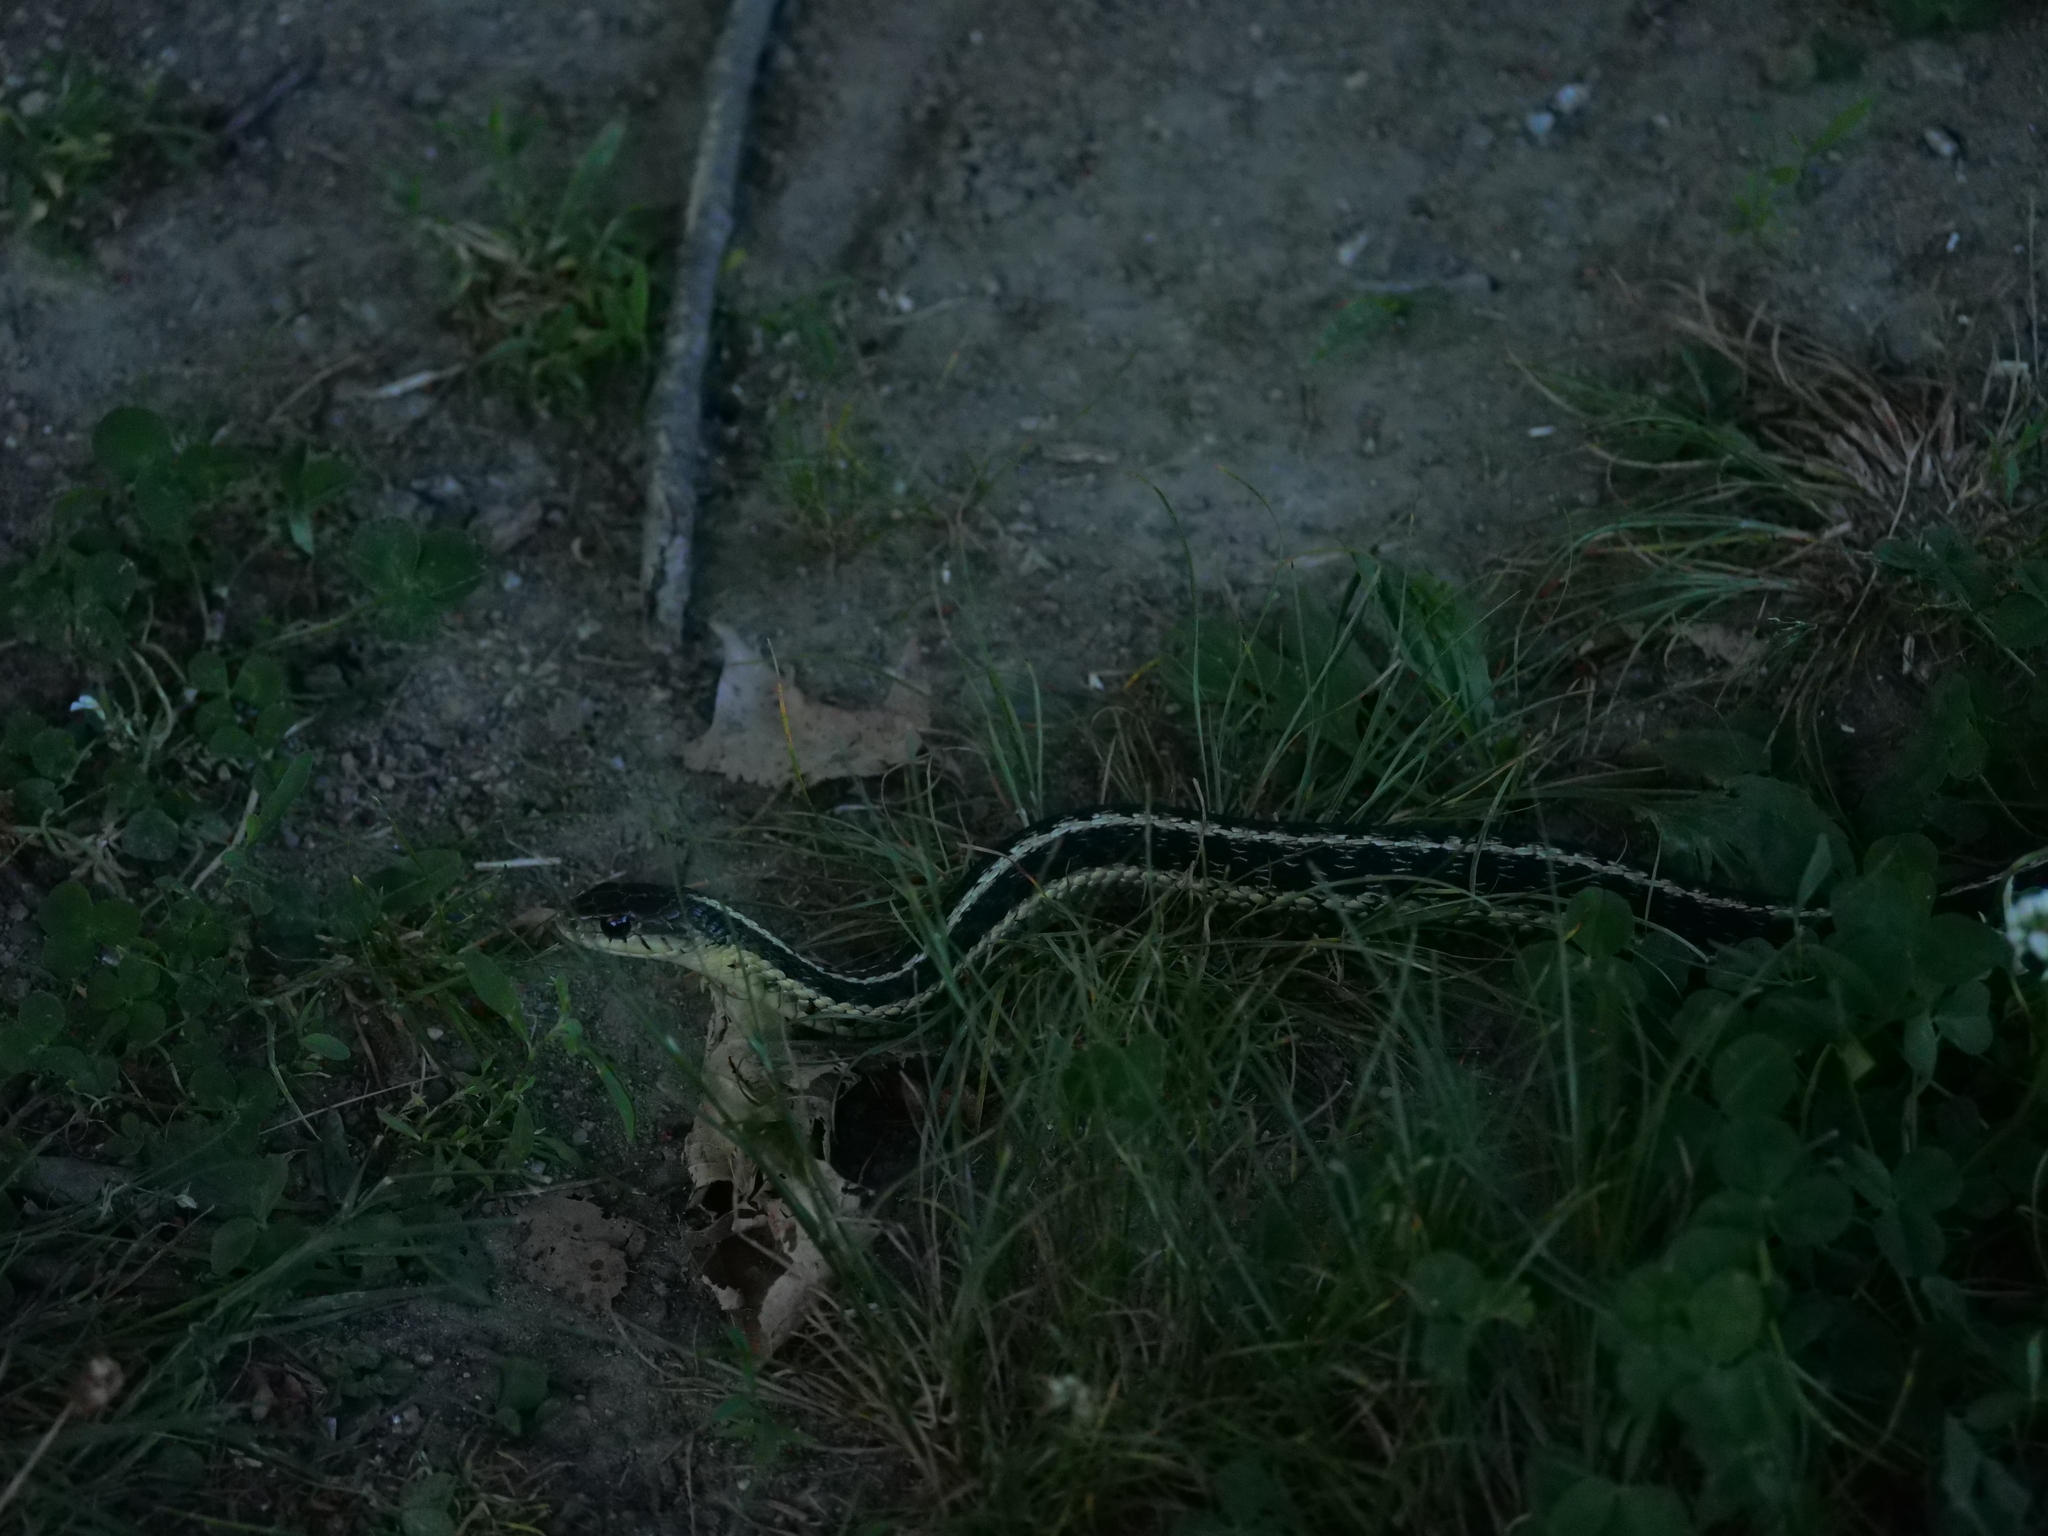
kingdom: Animalia
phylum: Chordata
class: Squamata
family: Colubridae
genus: Thamnophis
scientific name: Thamnophis sirtalis
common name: Common garter snake
